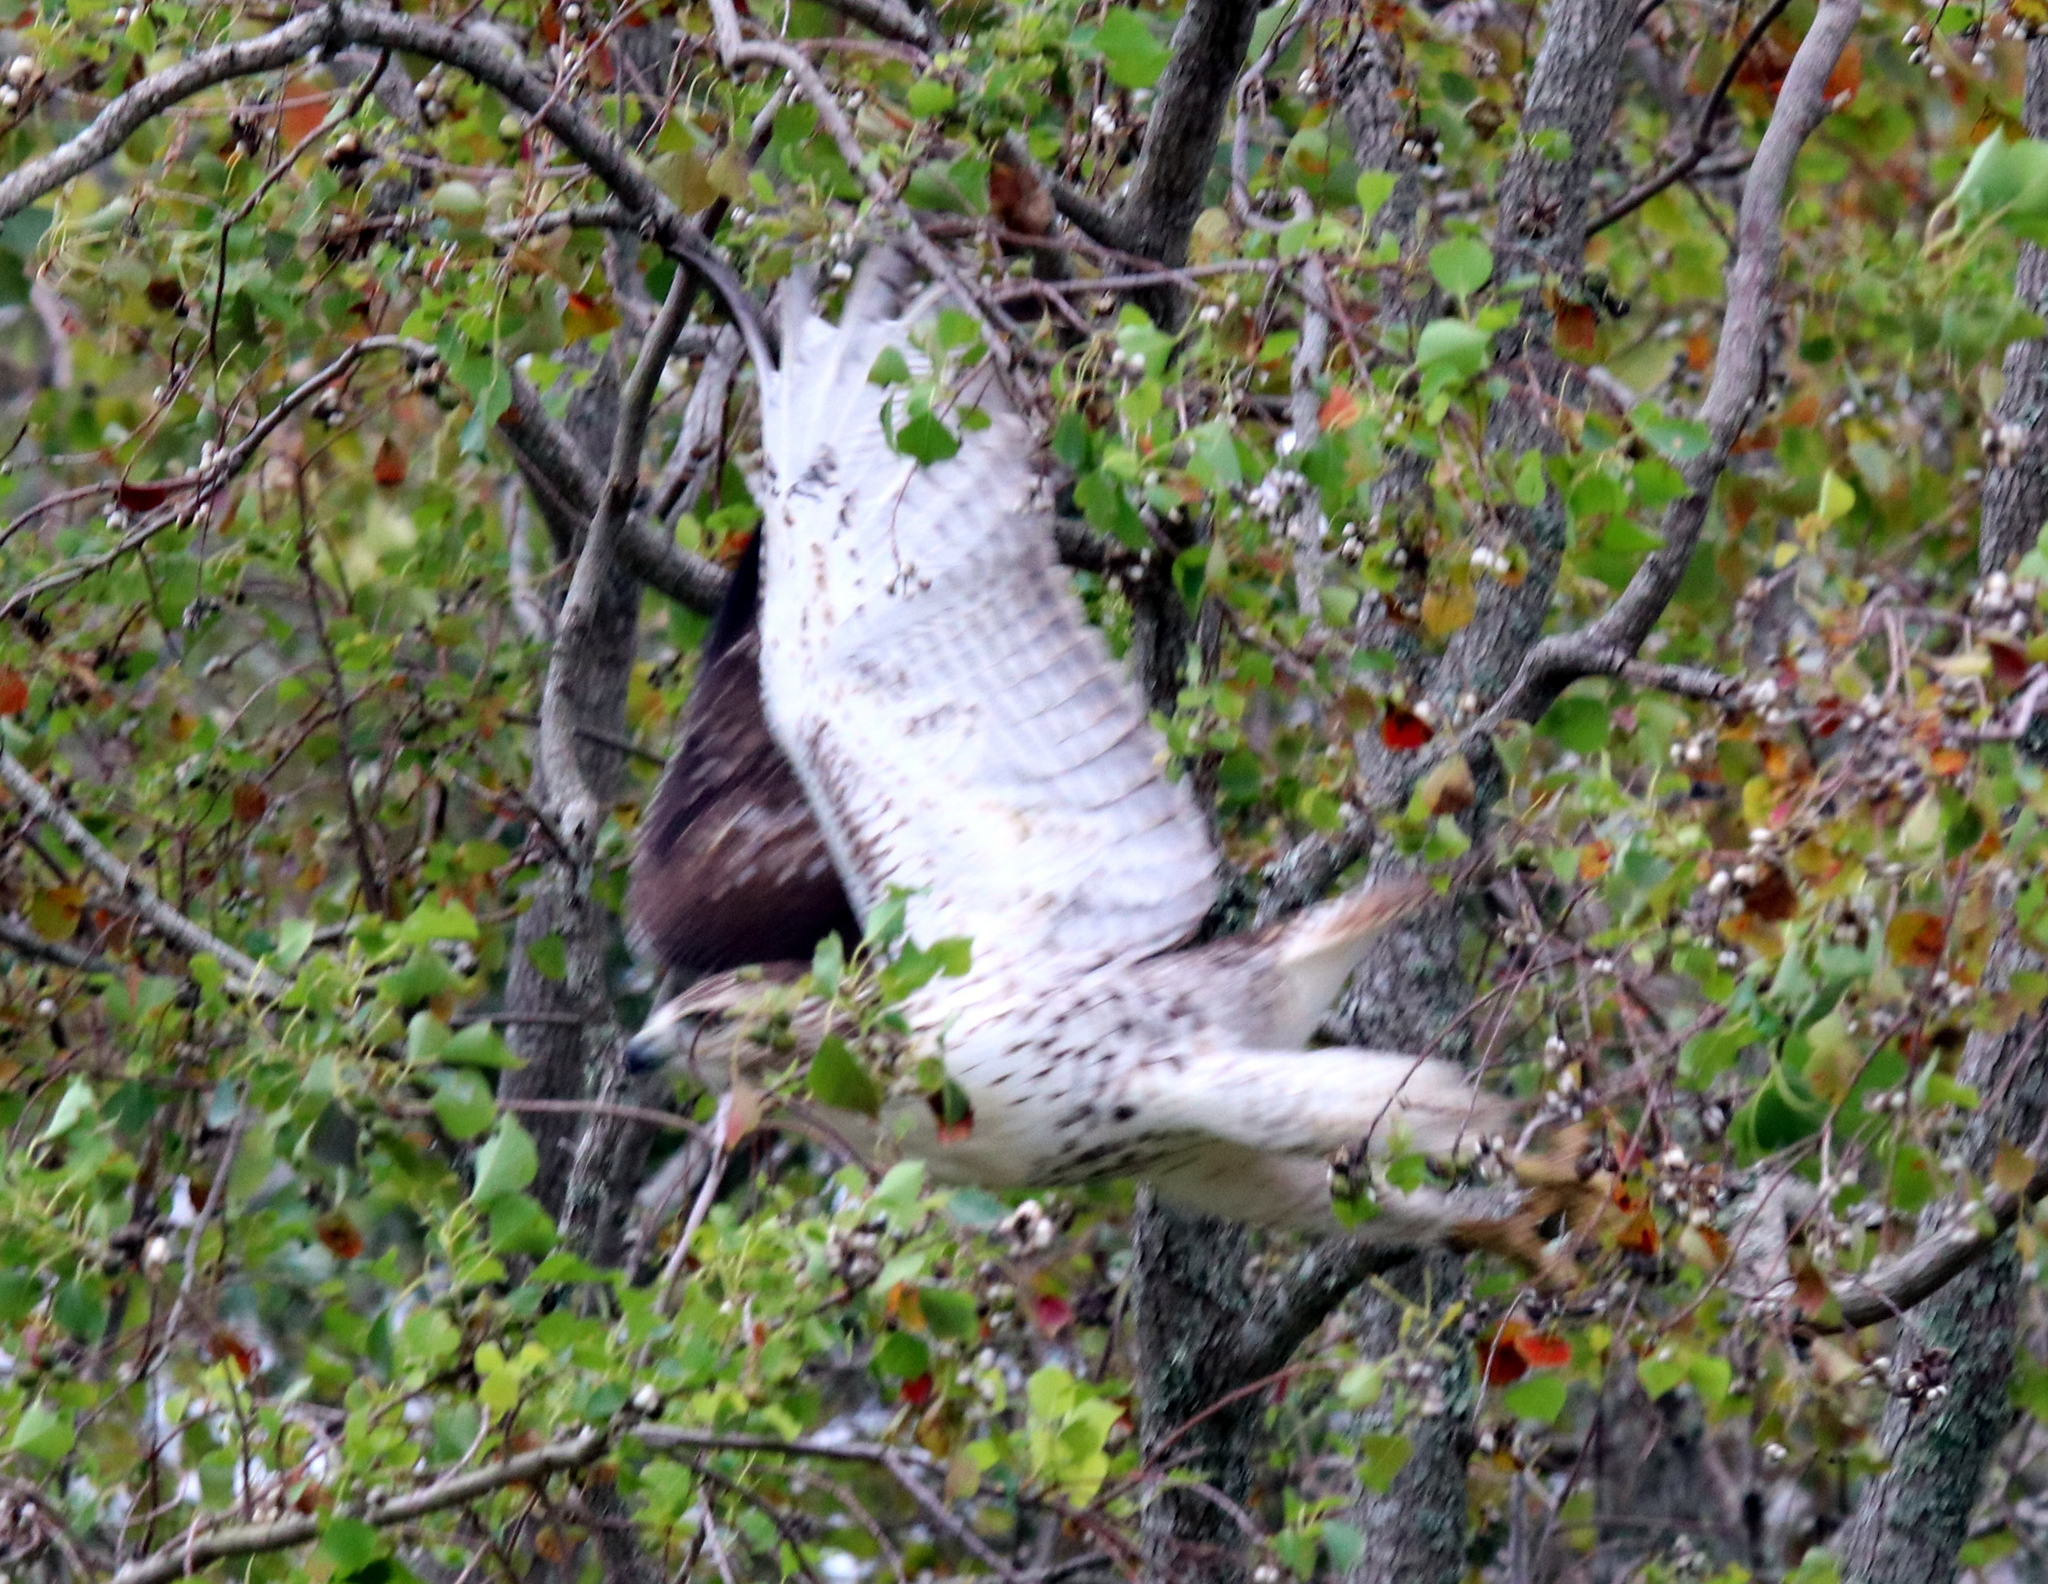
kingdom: Animalia
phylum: Chordata
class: Aves
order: Accipitriformes
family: Accipitridae
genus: Buteo
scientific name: Buteo jamaicensis
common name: Red-tailed hawk
